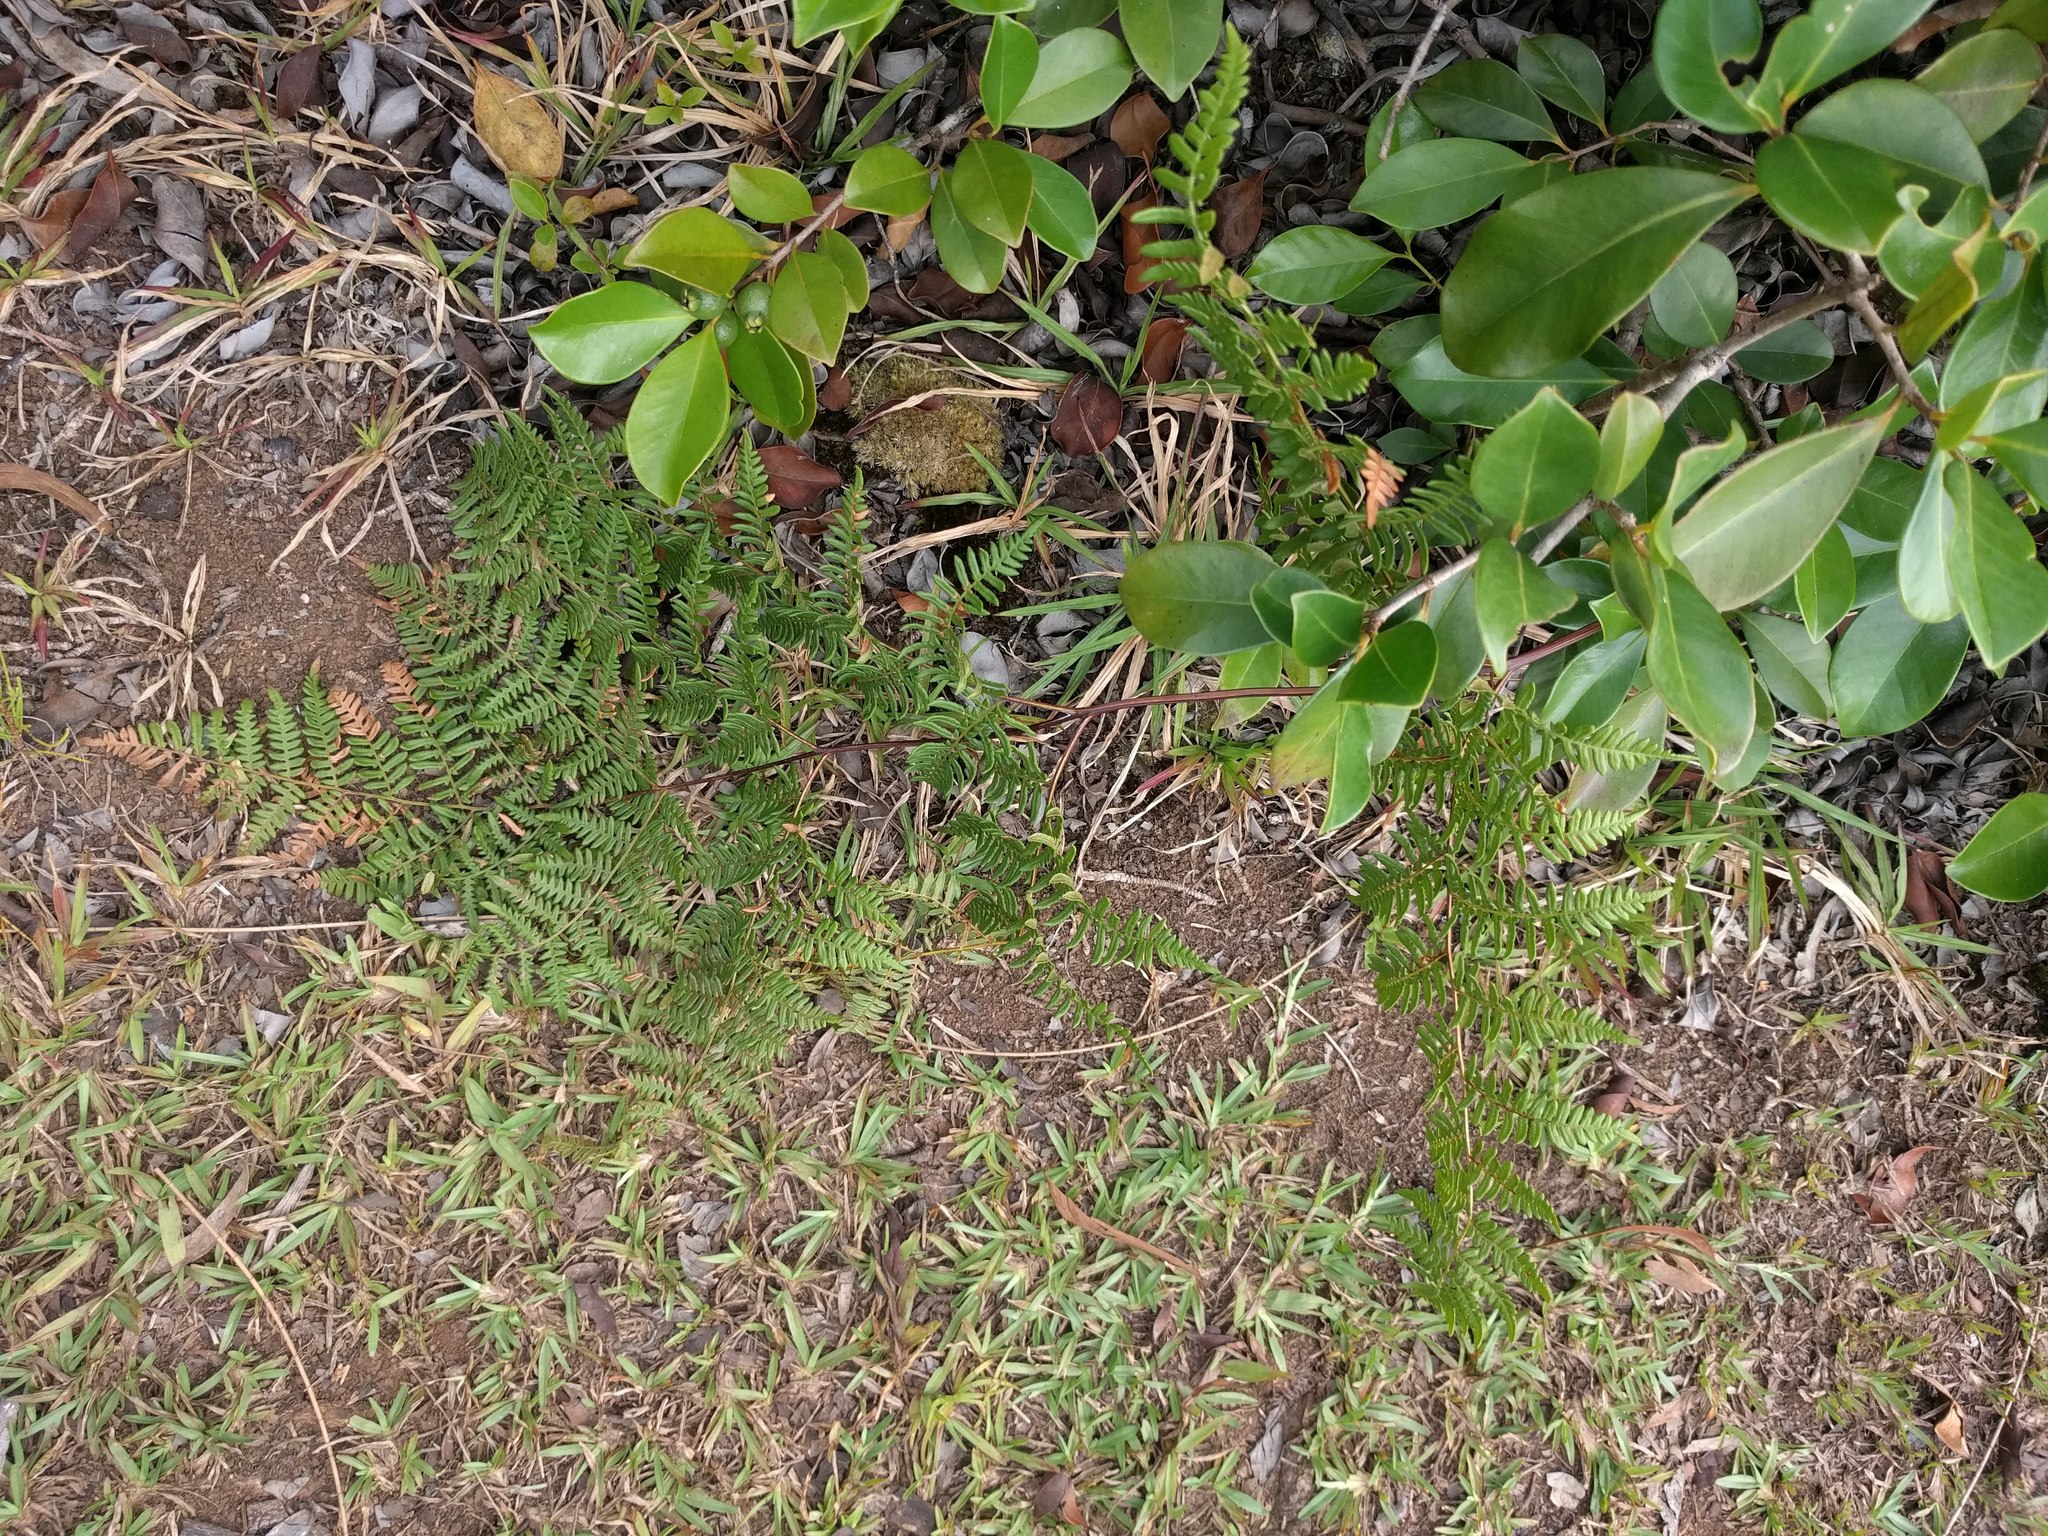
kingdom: Plantae
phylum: Tracheophyta
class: Polypodiopsida
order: Polypodiales
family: Dennstaedtiaceae
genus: Pteridium
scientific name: Pteridium aquilinum
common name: Bracken
